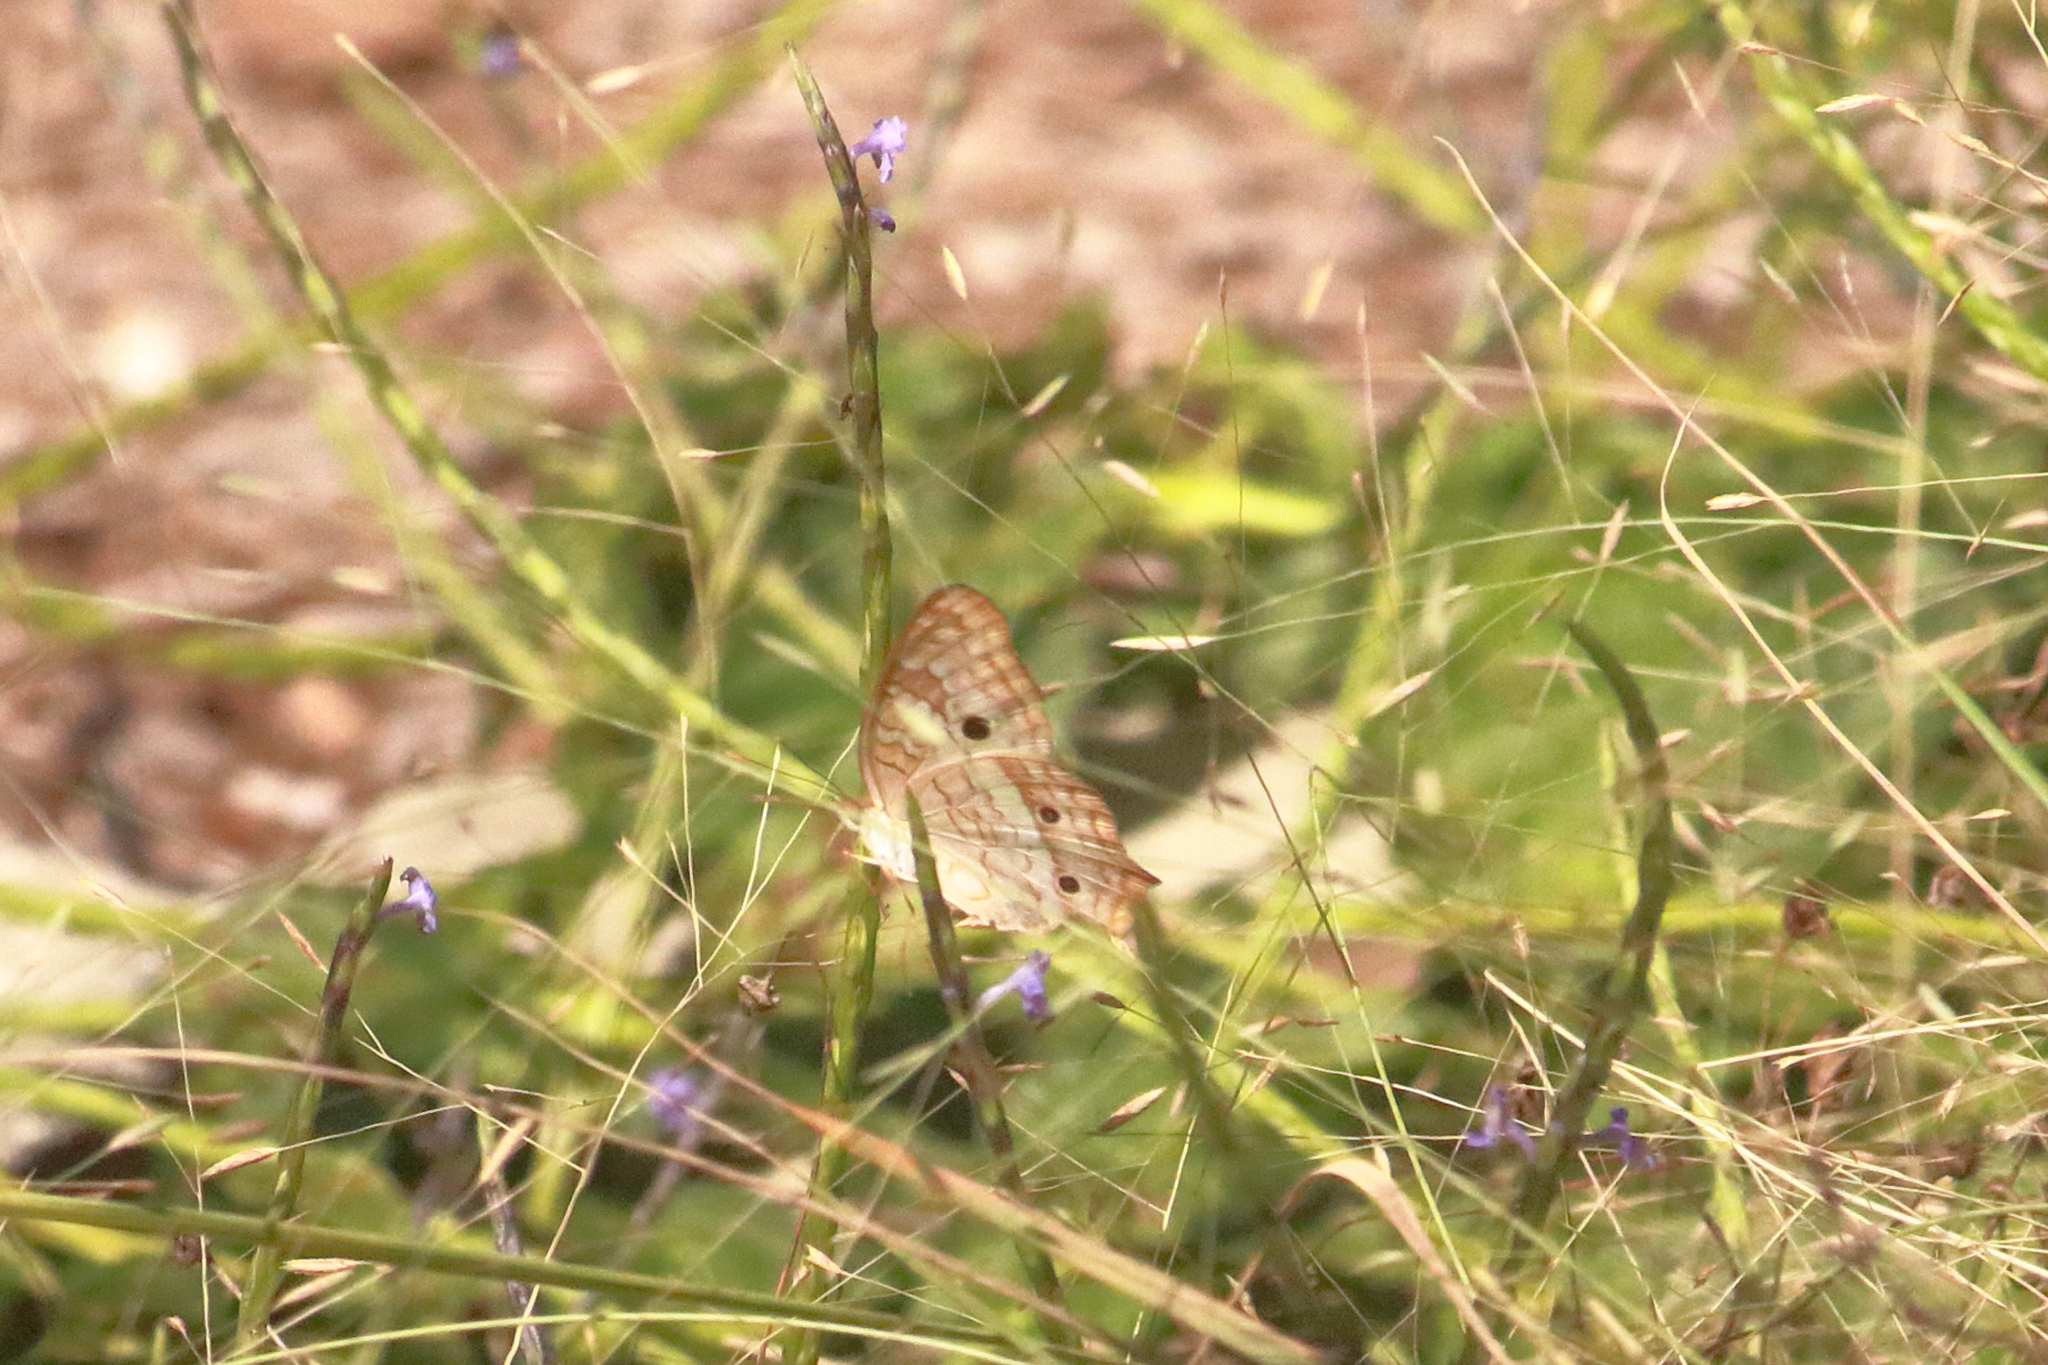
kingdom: Animalia
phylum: Arthropoda
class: Insecta
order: Lepidoptera
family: Nymphalidae
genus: Anartia
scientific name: Anartia jatrophae
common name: White peacock
